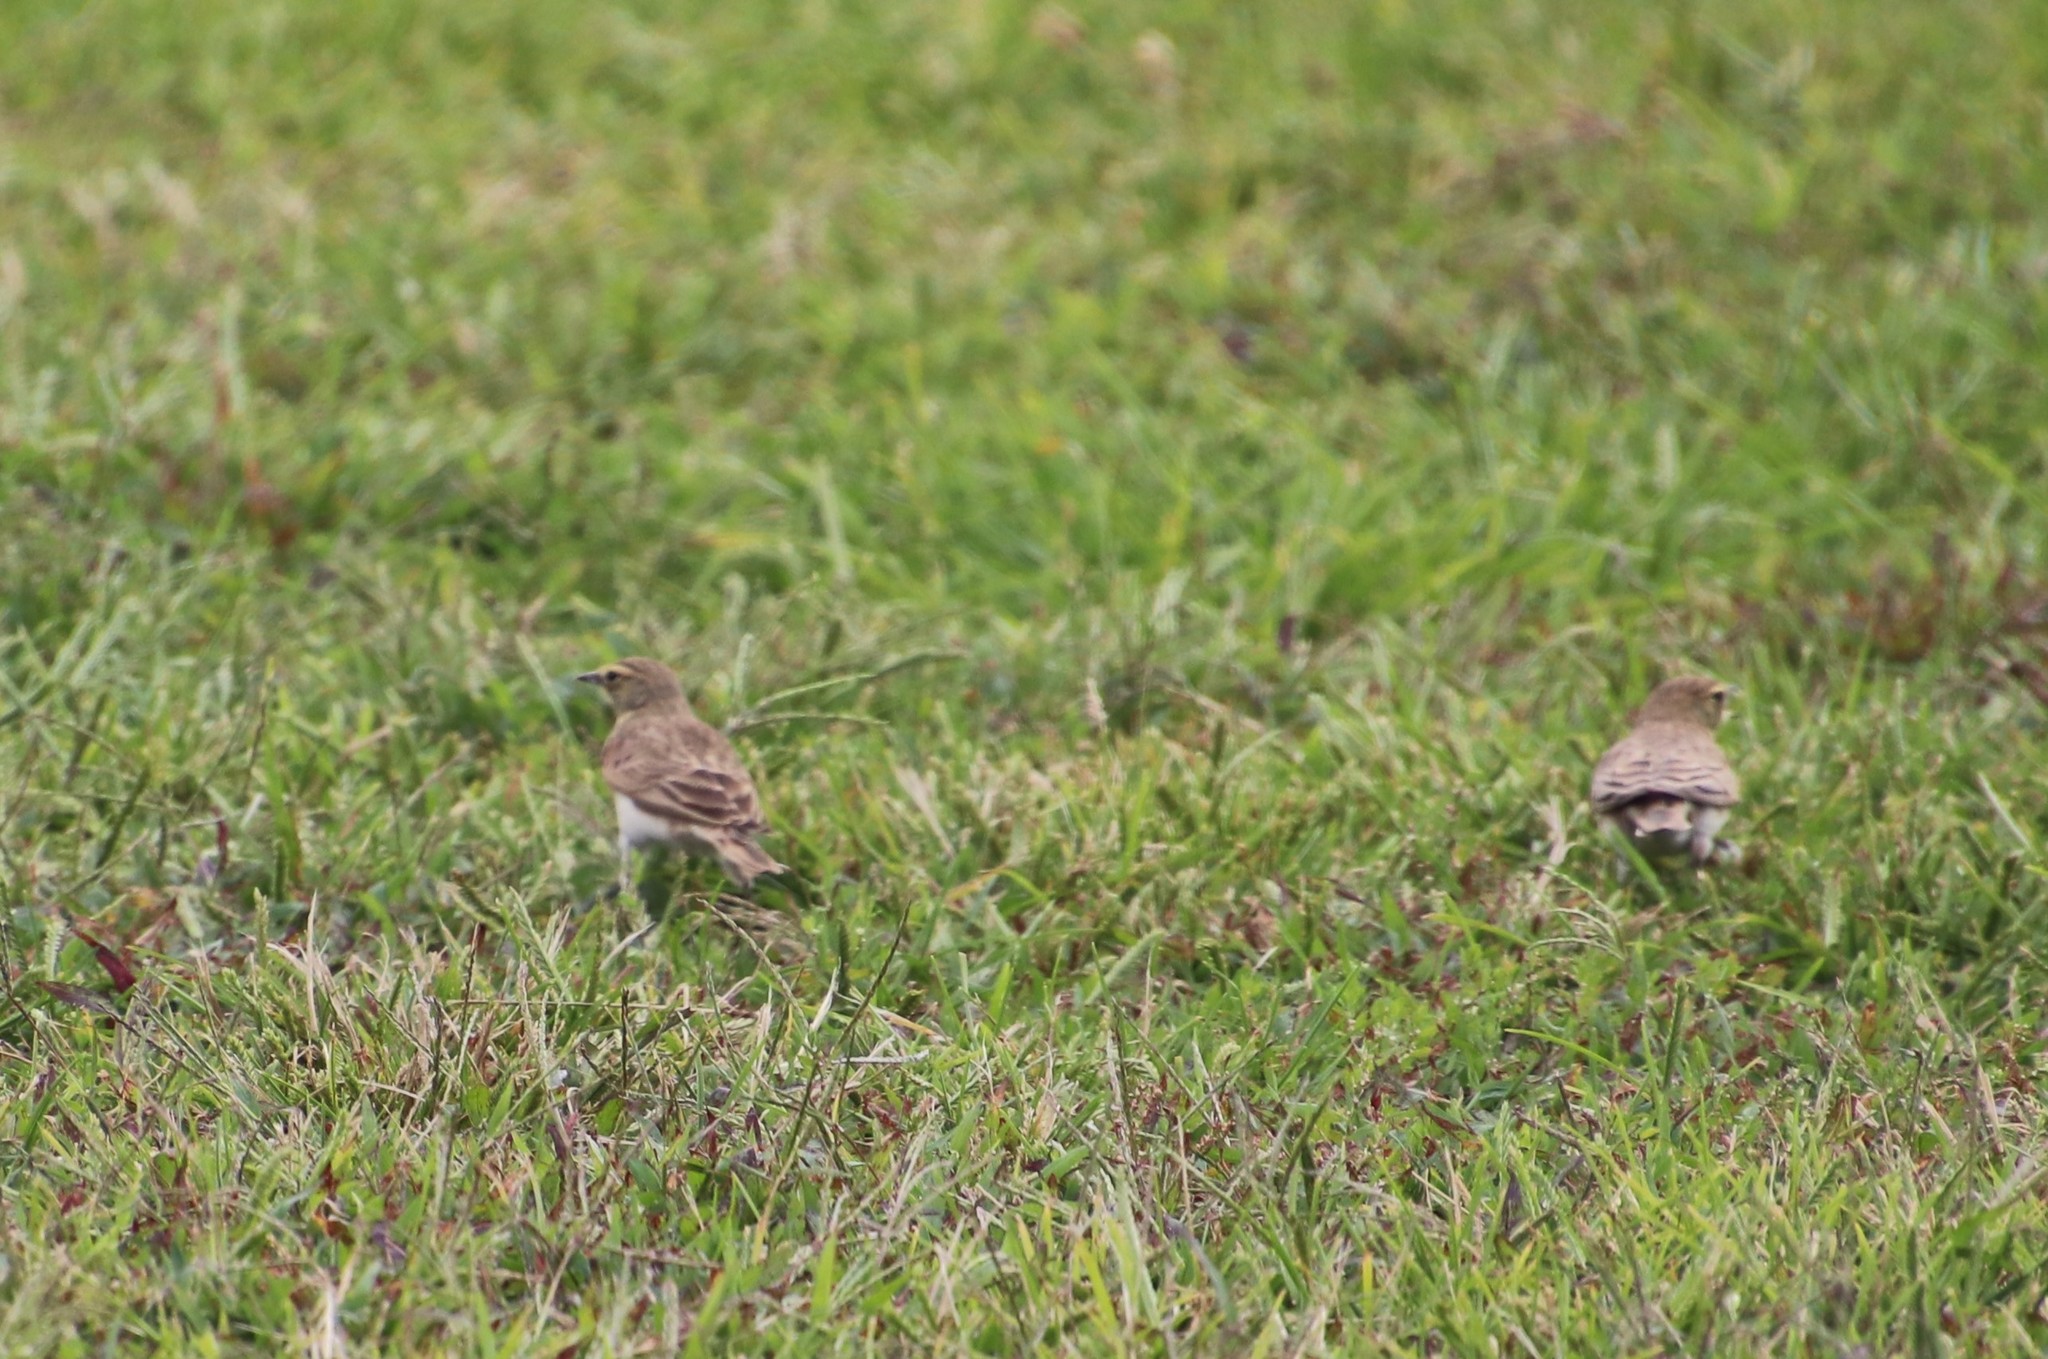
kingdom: Animalia
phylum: Chordata
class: Aves
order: Passeriformes
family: Alaudidae
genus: Eremophila
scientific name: Eremophila alpestris
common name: Horned lark
